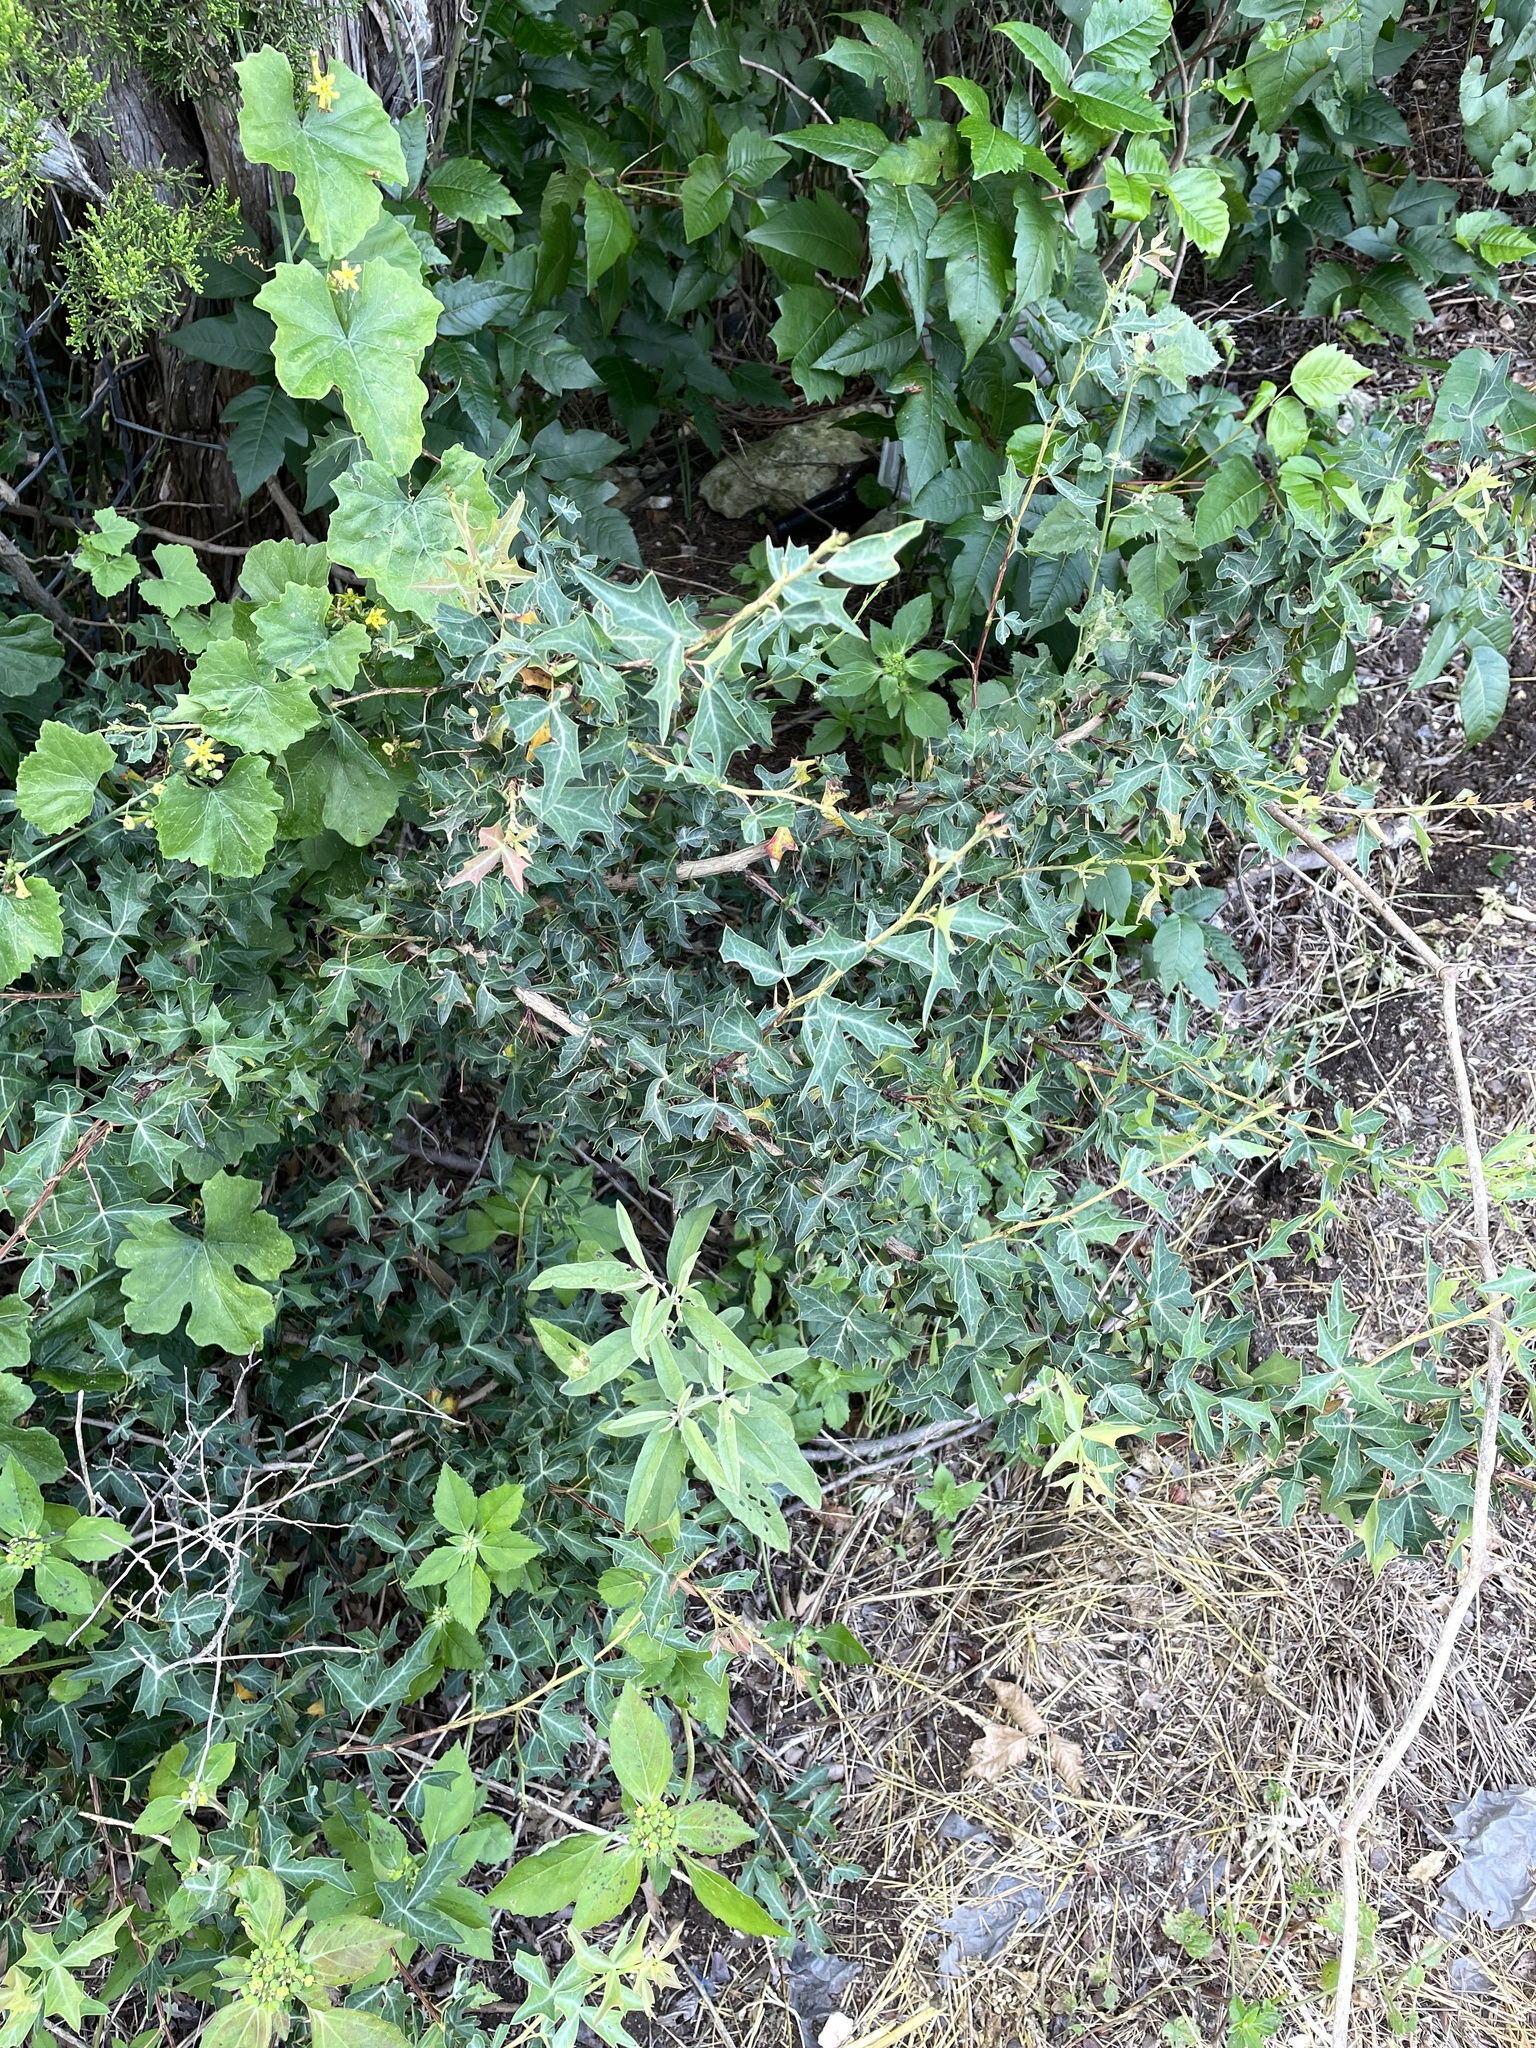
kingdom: Plantae
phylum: Tracheophyta
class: Magnoliopsida
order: Ranunculales
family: Berberidaceae
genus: Alloberberis
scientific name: Alloberberis trifoliolata
